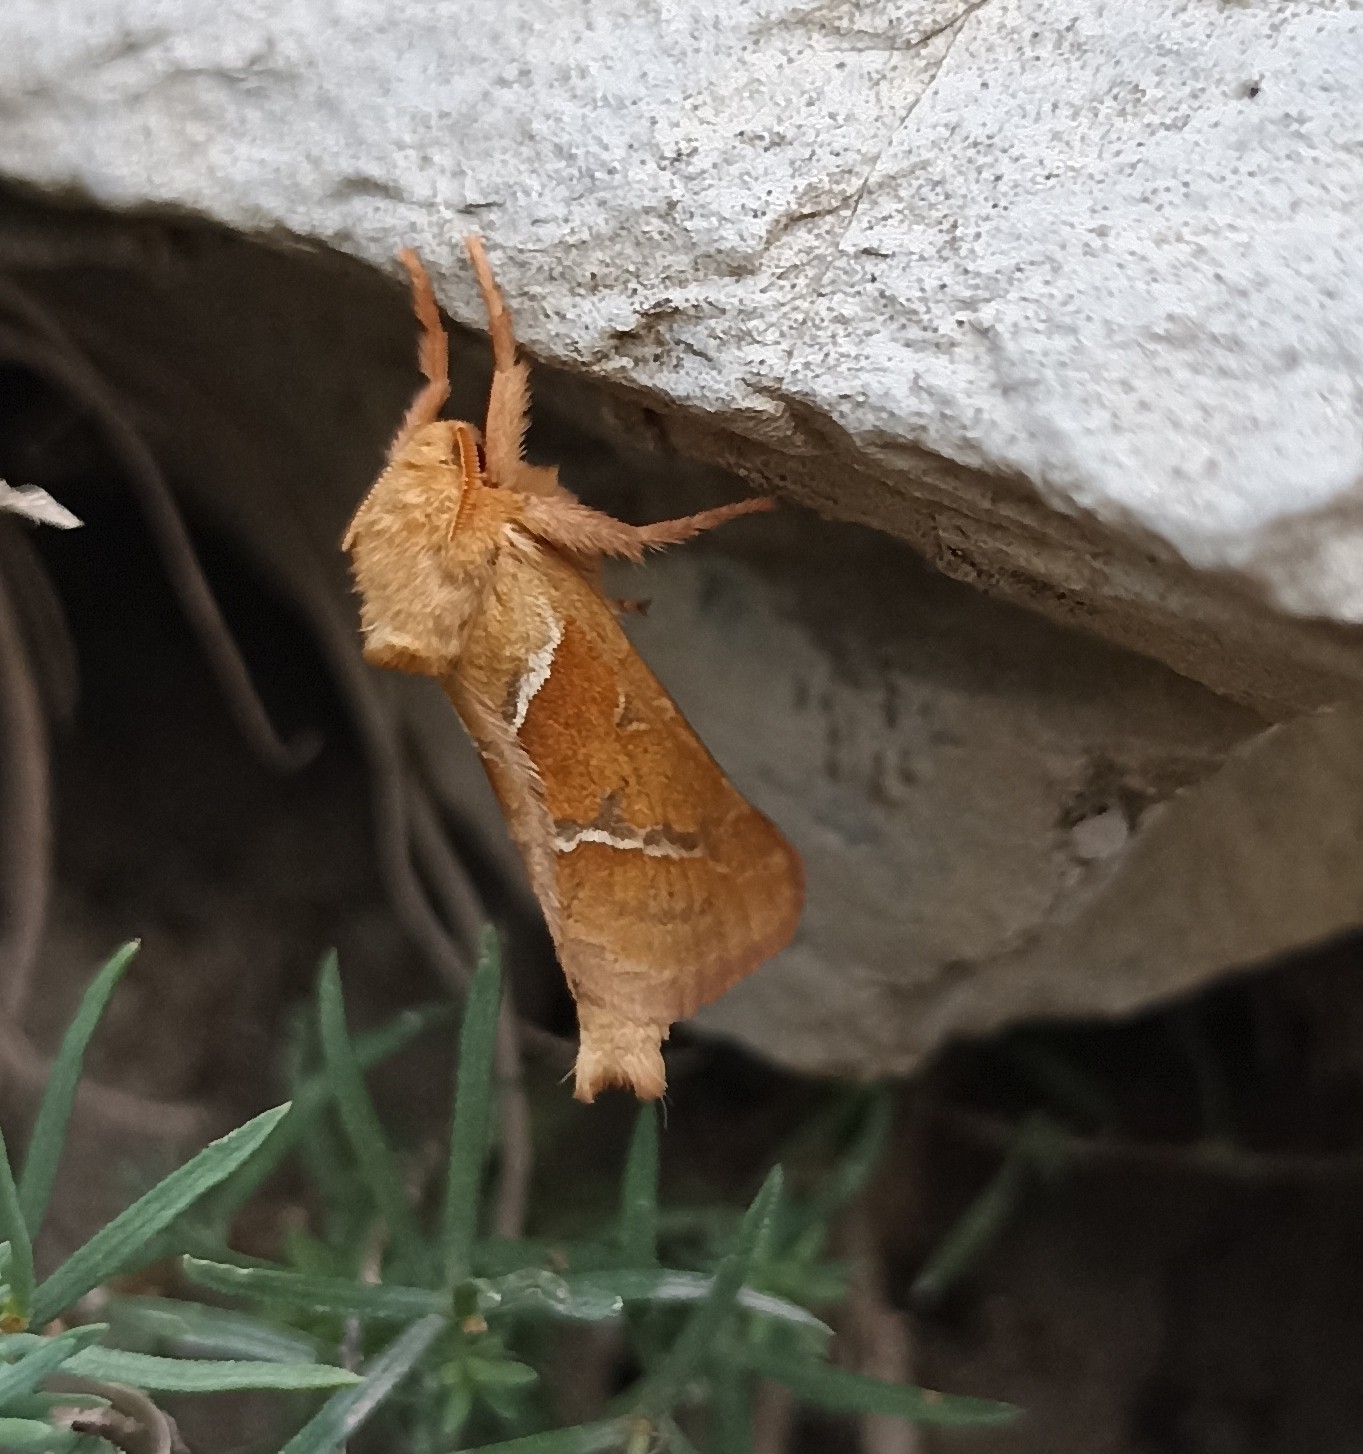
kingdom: Animalia
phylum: Arthropoda
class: Insecta
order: Lepidoptera
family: Hepialidae
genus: Triodia
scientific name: Triodia sylvina
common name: Orange swift
